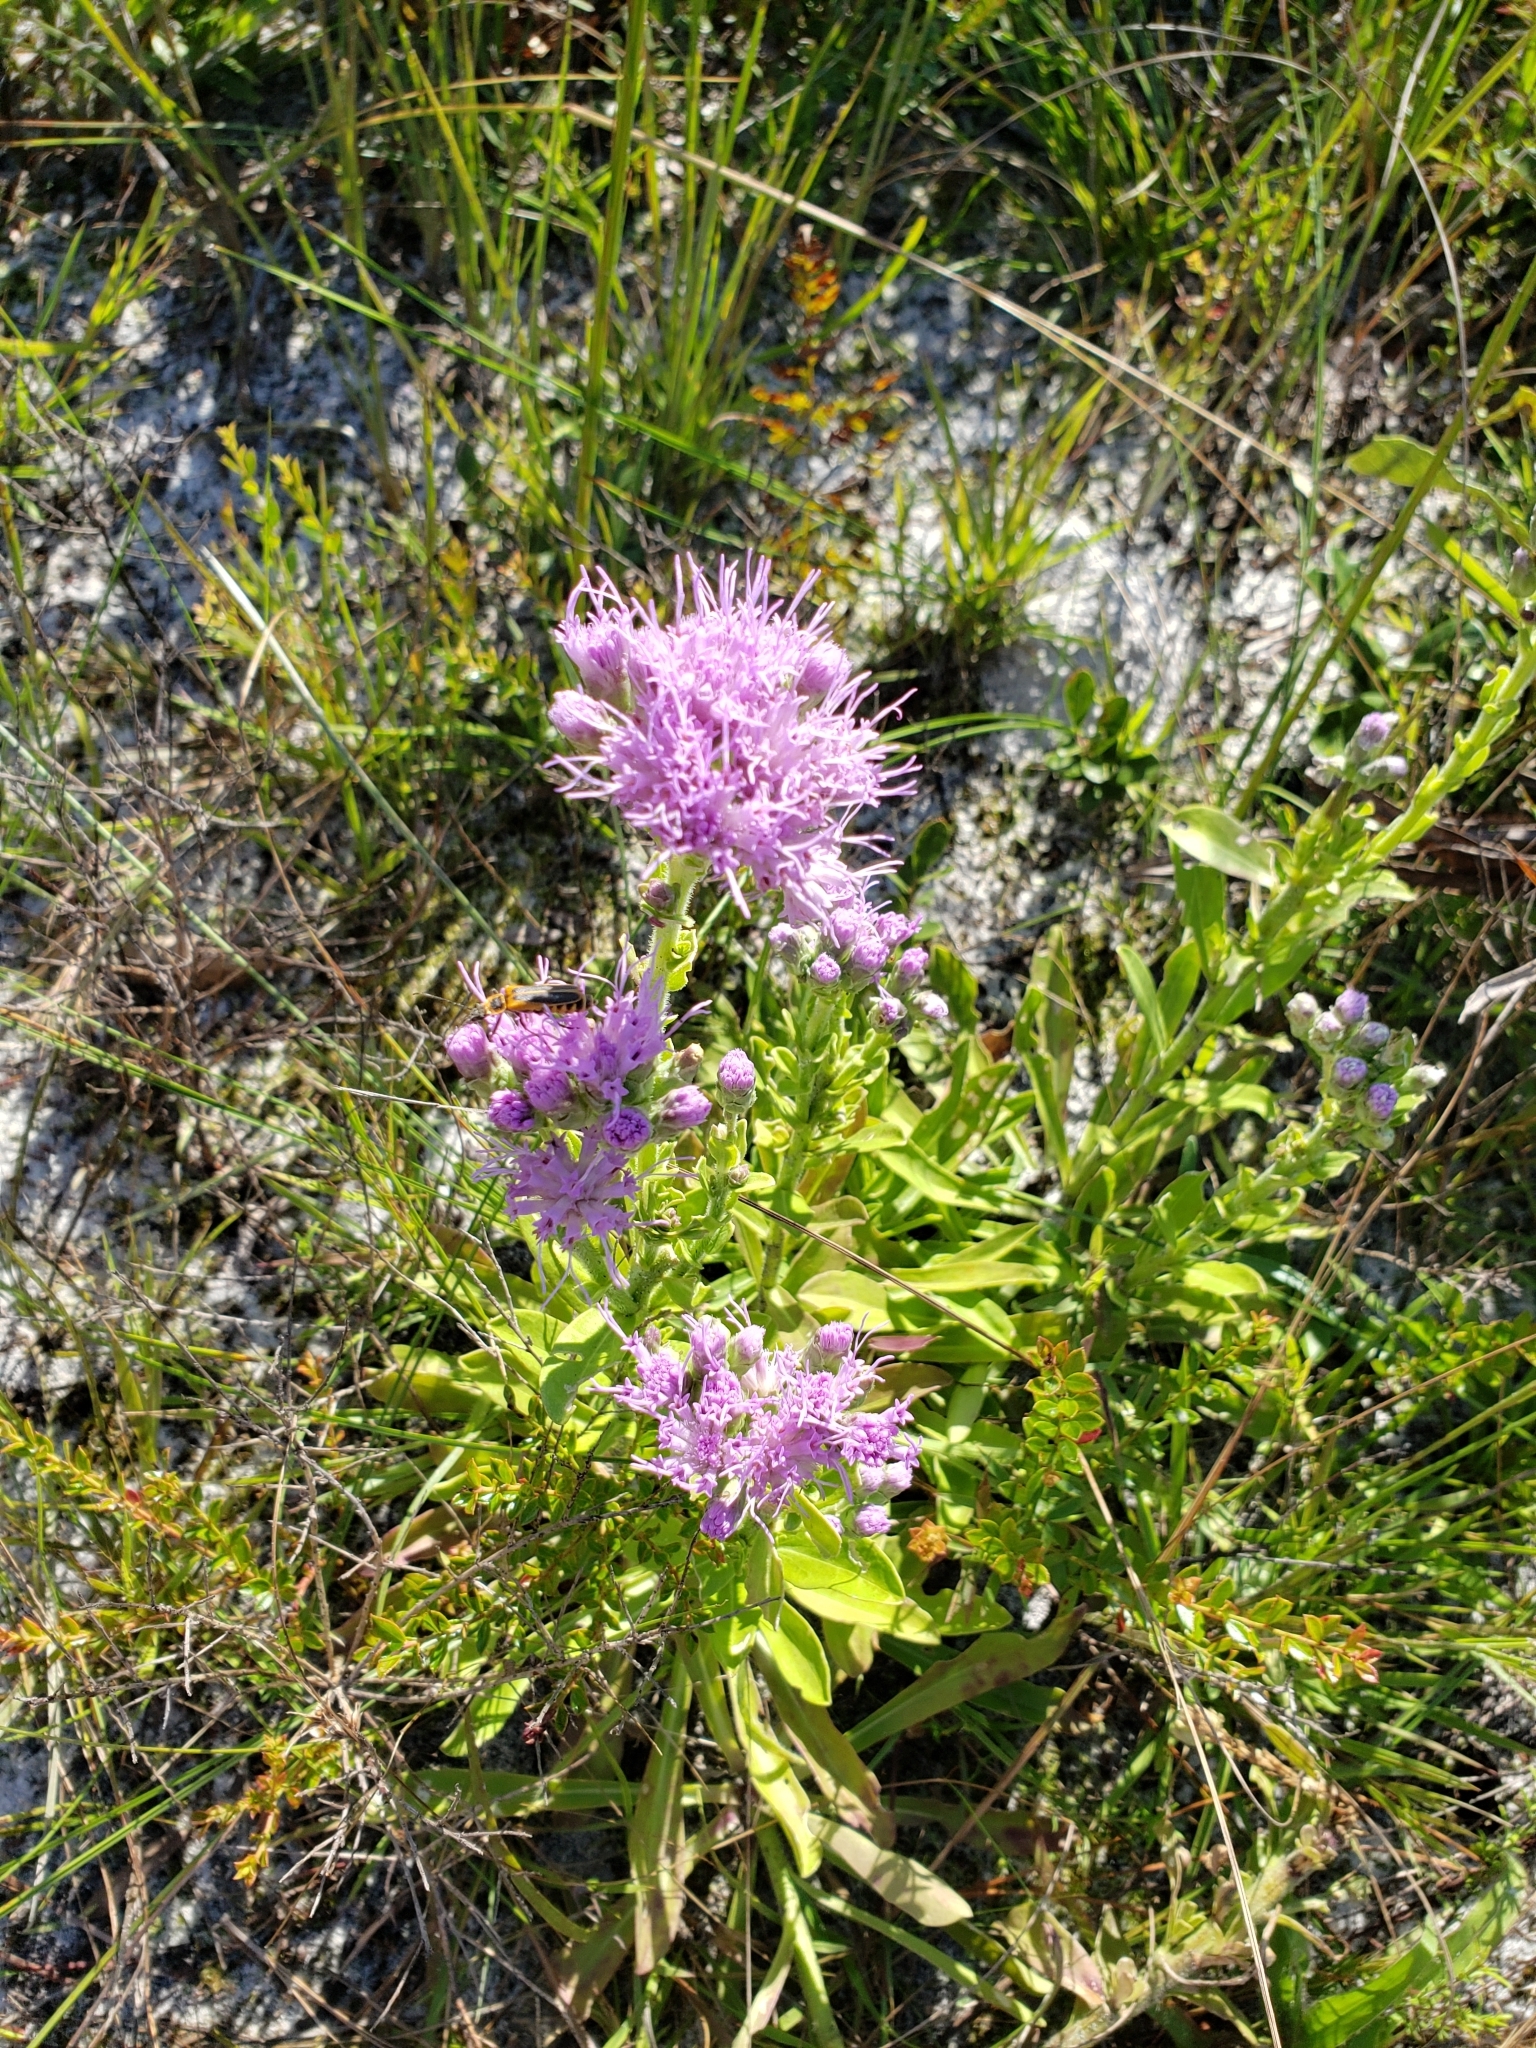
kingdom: Plantae
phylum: Tracheophyta
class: Magnoliopsida
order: Asterales
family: Asteraceae
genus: Carphephorus
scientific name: Carphephorus corymbosus
